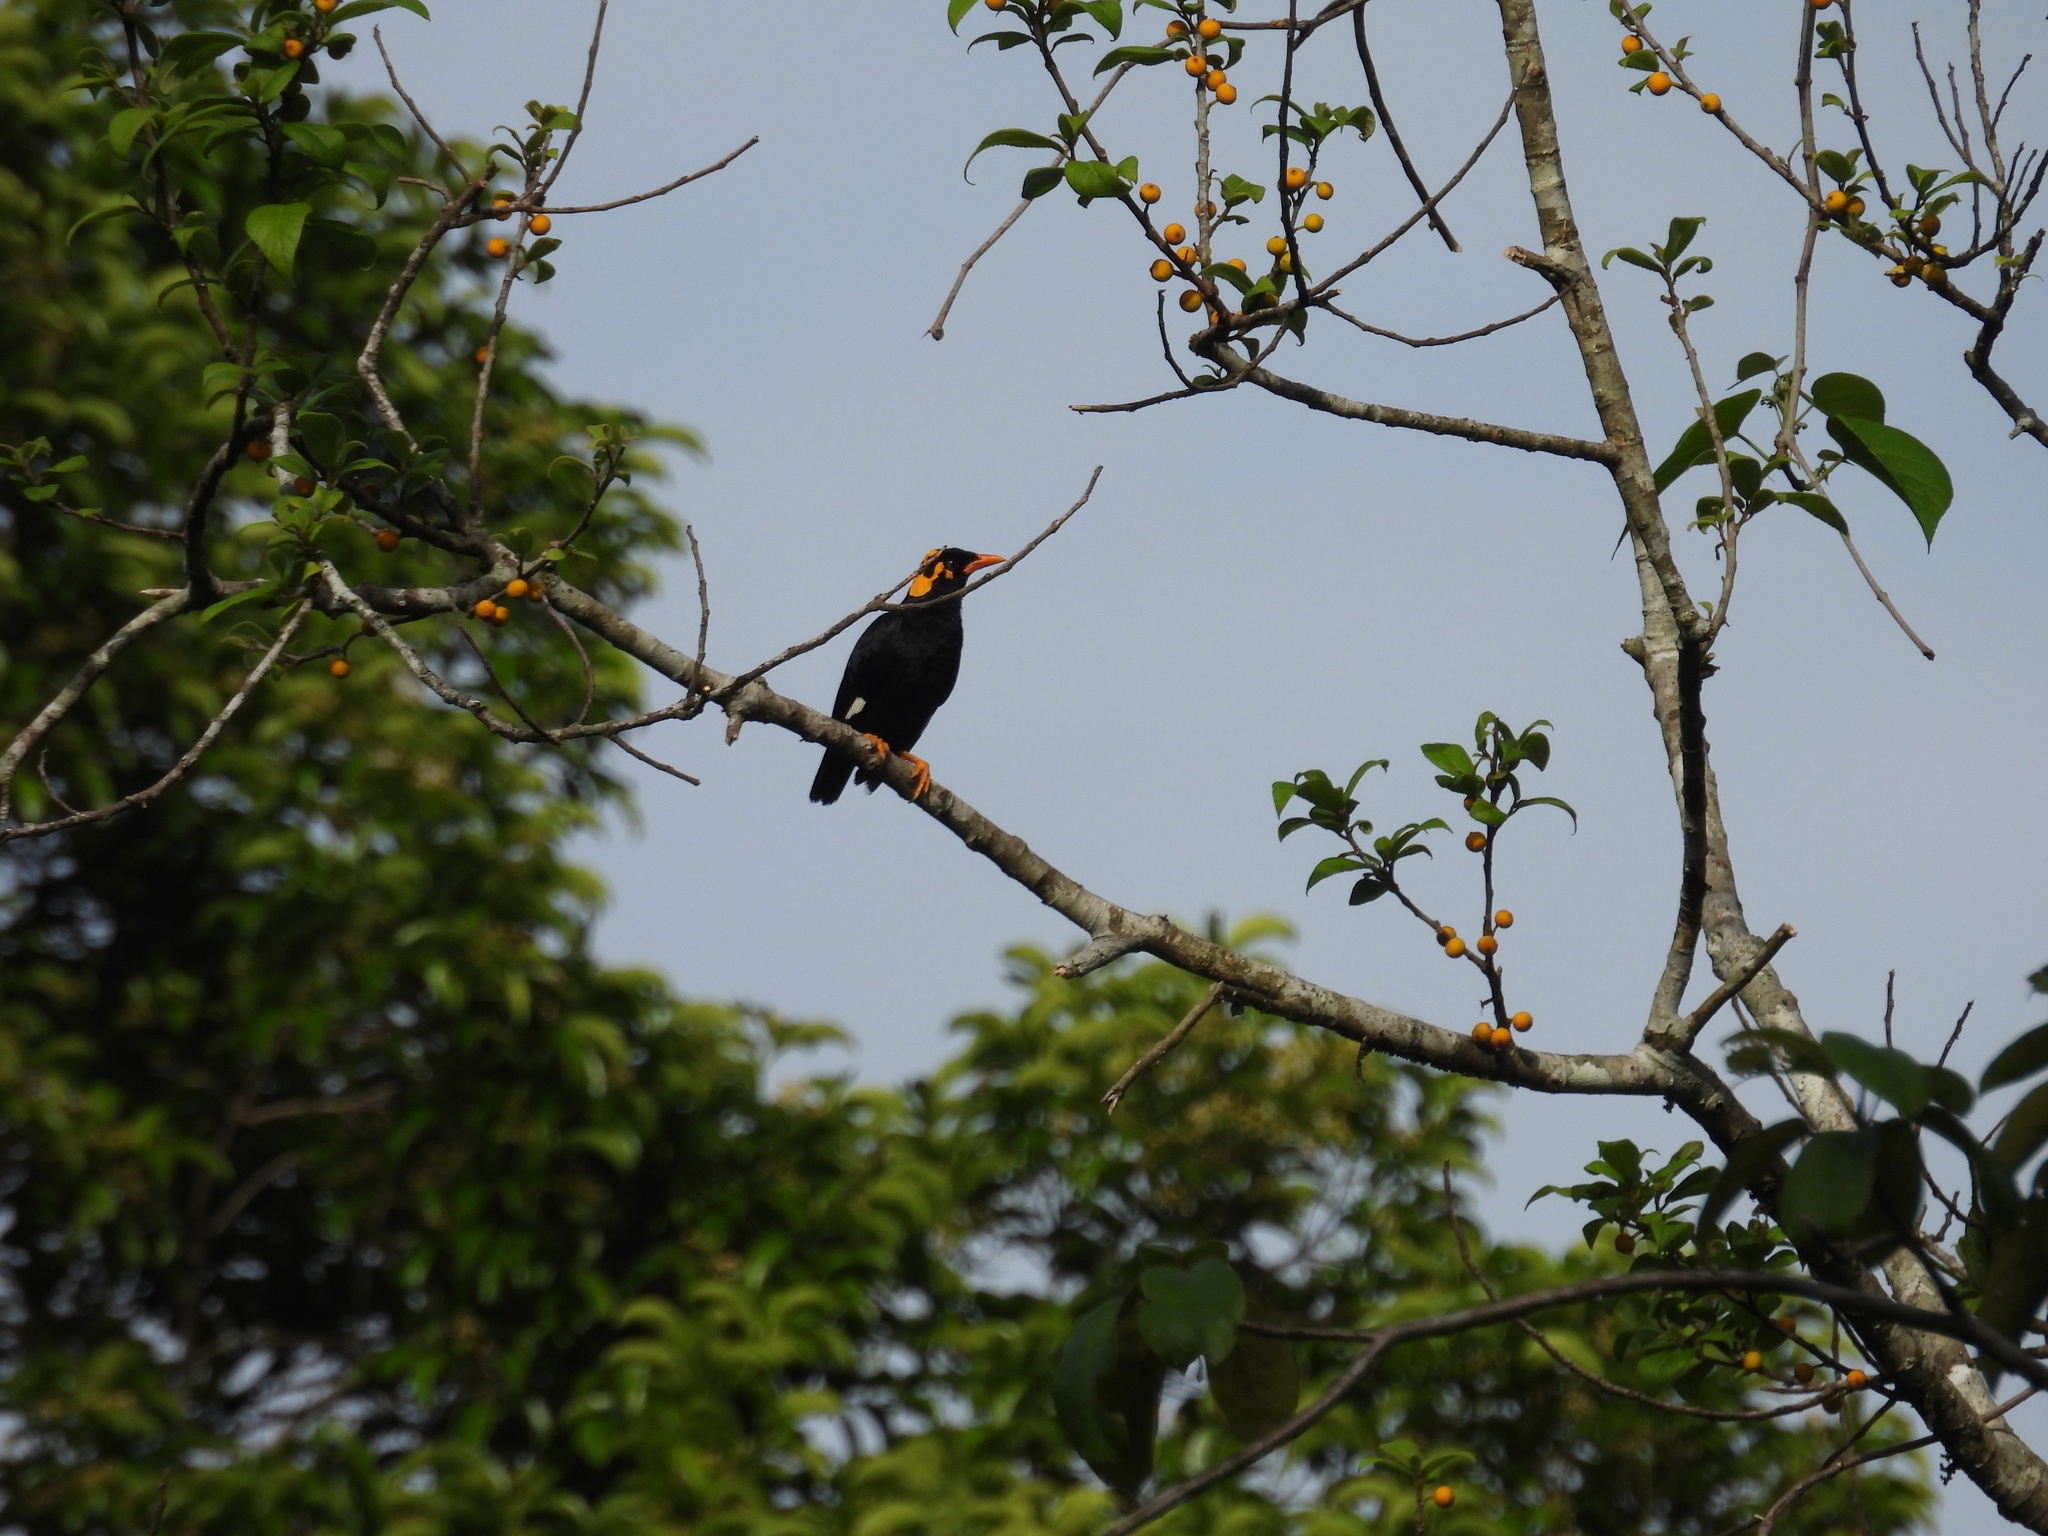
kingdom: Animalia
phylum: Chordata
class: Aves
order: Passeriformes
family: Sturnidae
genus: Gracula
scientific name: Gracula indica
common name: Southern hill myna
